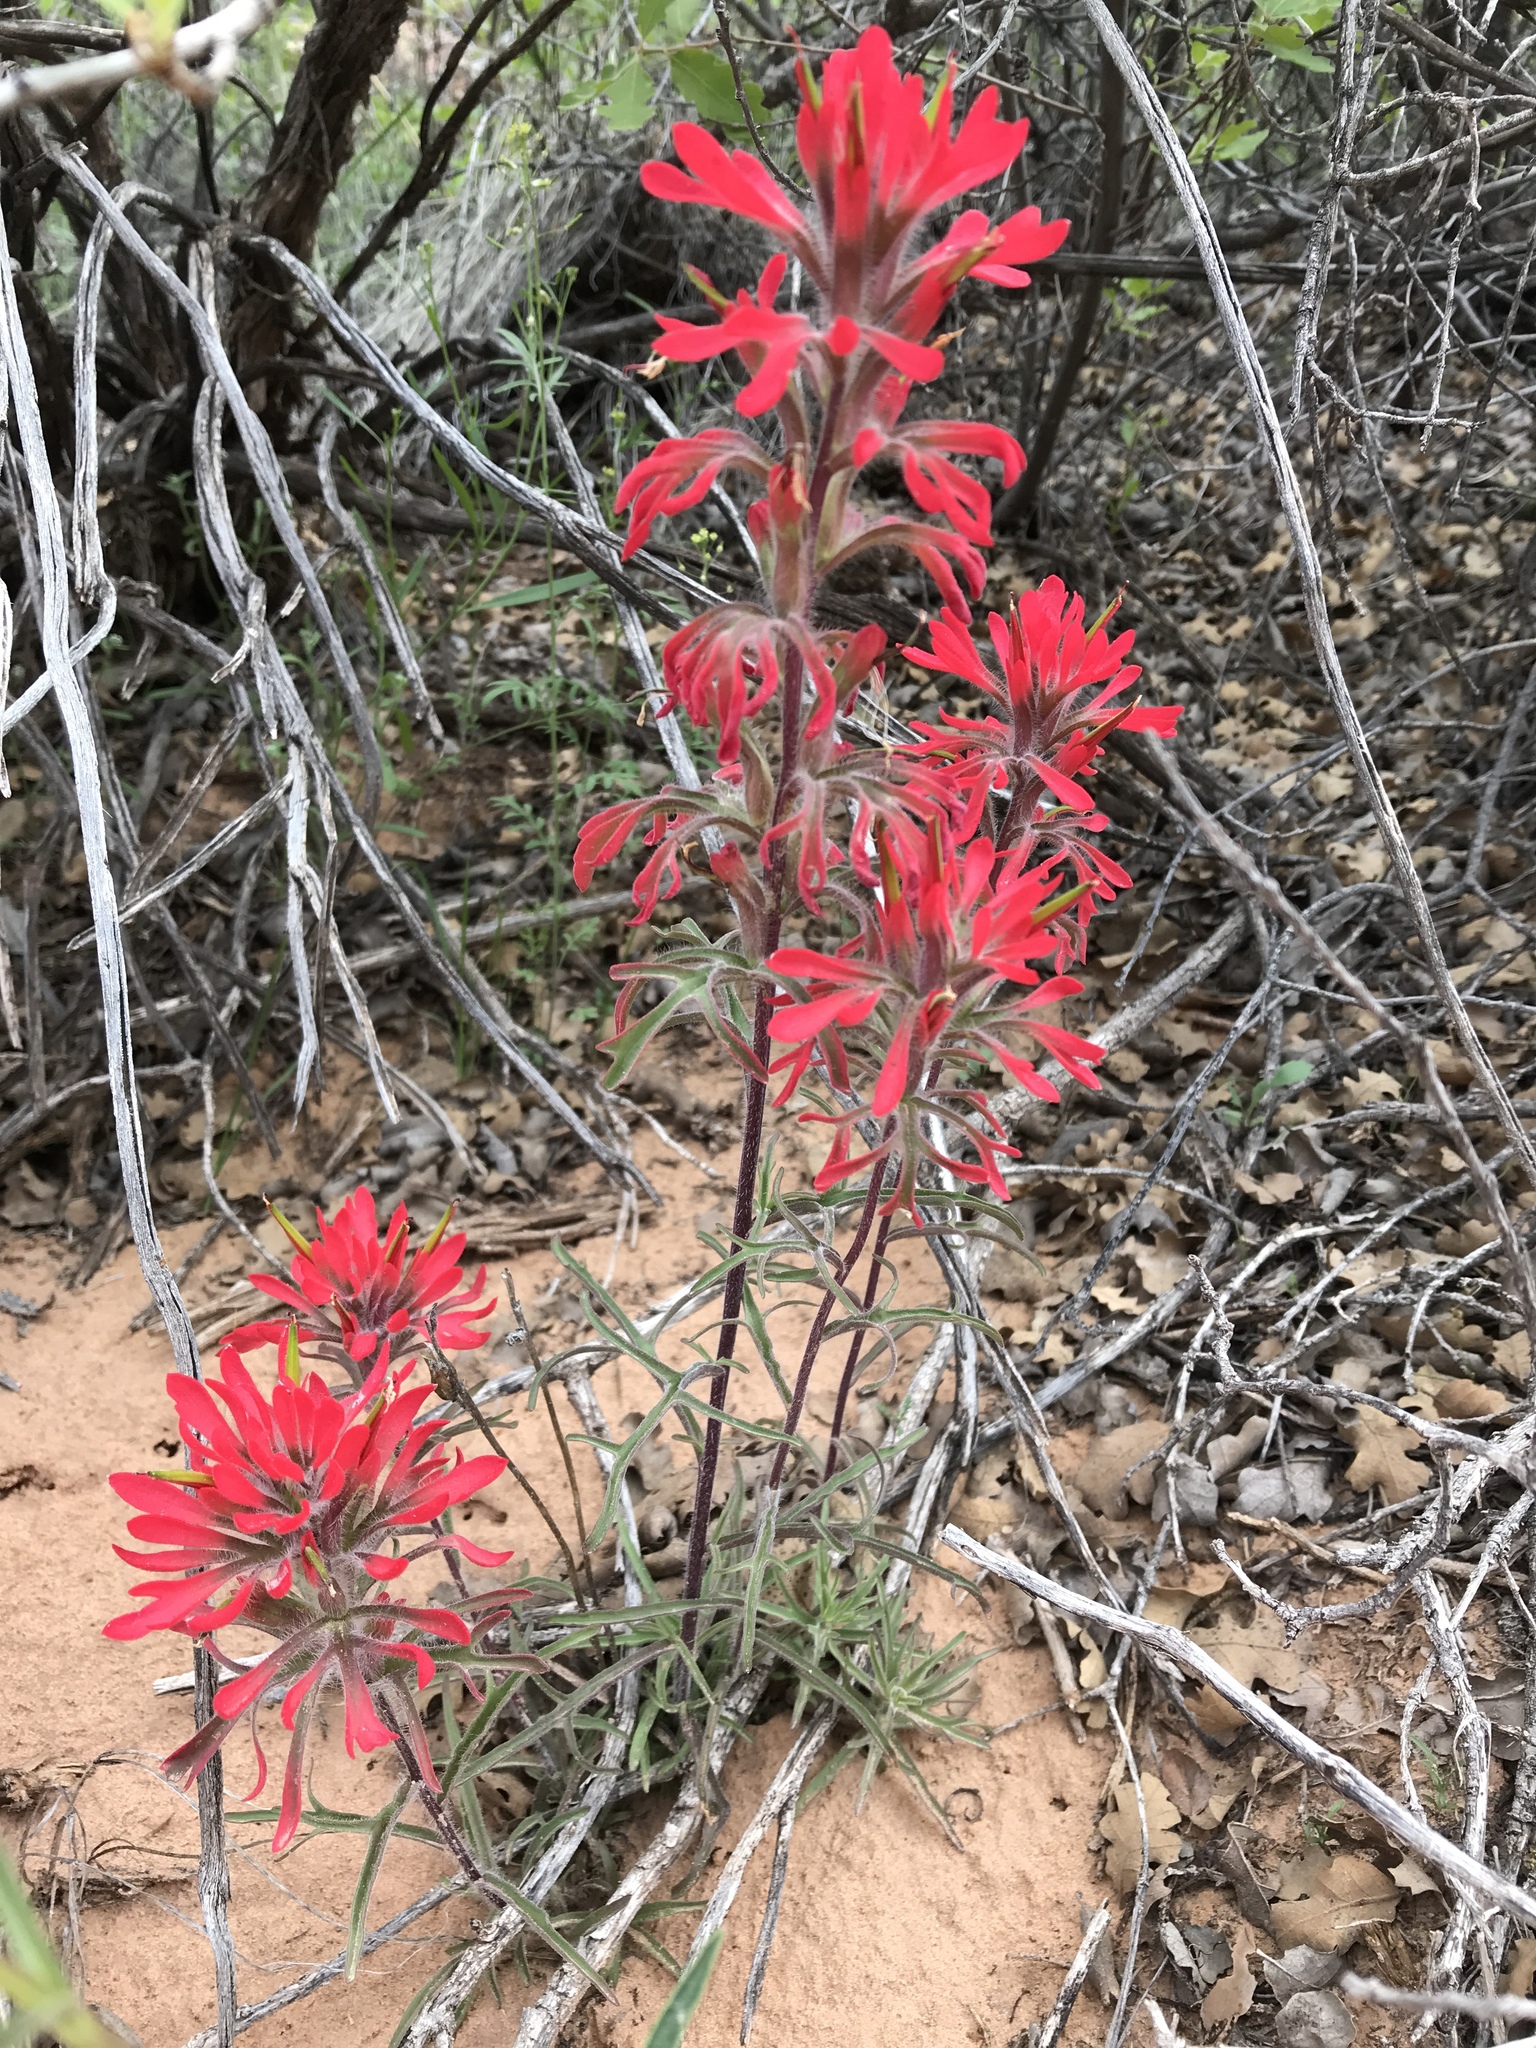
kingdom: Plantae
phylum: Tracheophyta
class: Magnoliopsida
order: Lamiales
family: Orobanchaceae
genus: Castilleja
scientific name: Castilleja chromosa
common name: Desert paintbrush
